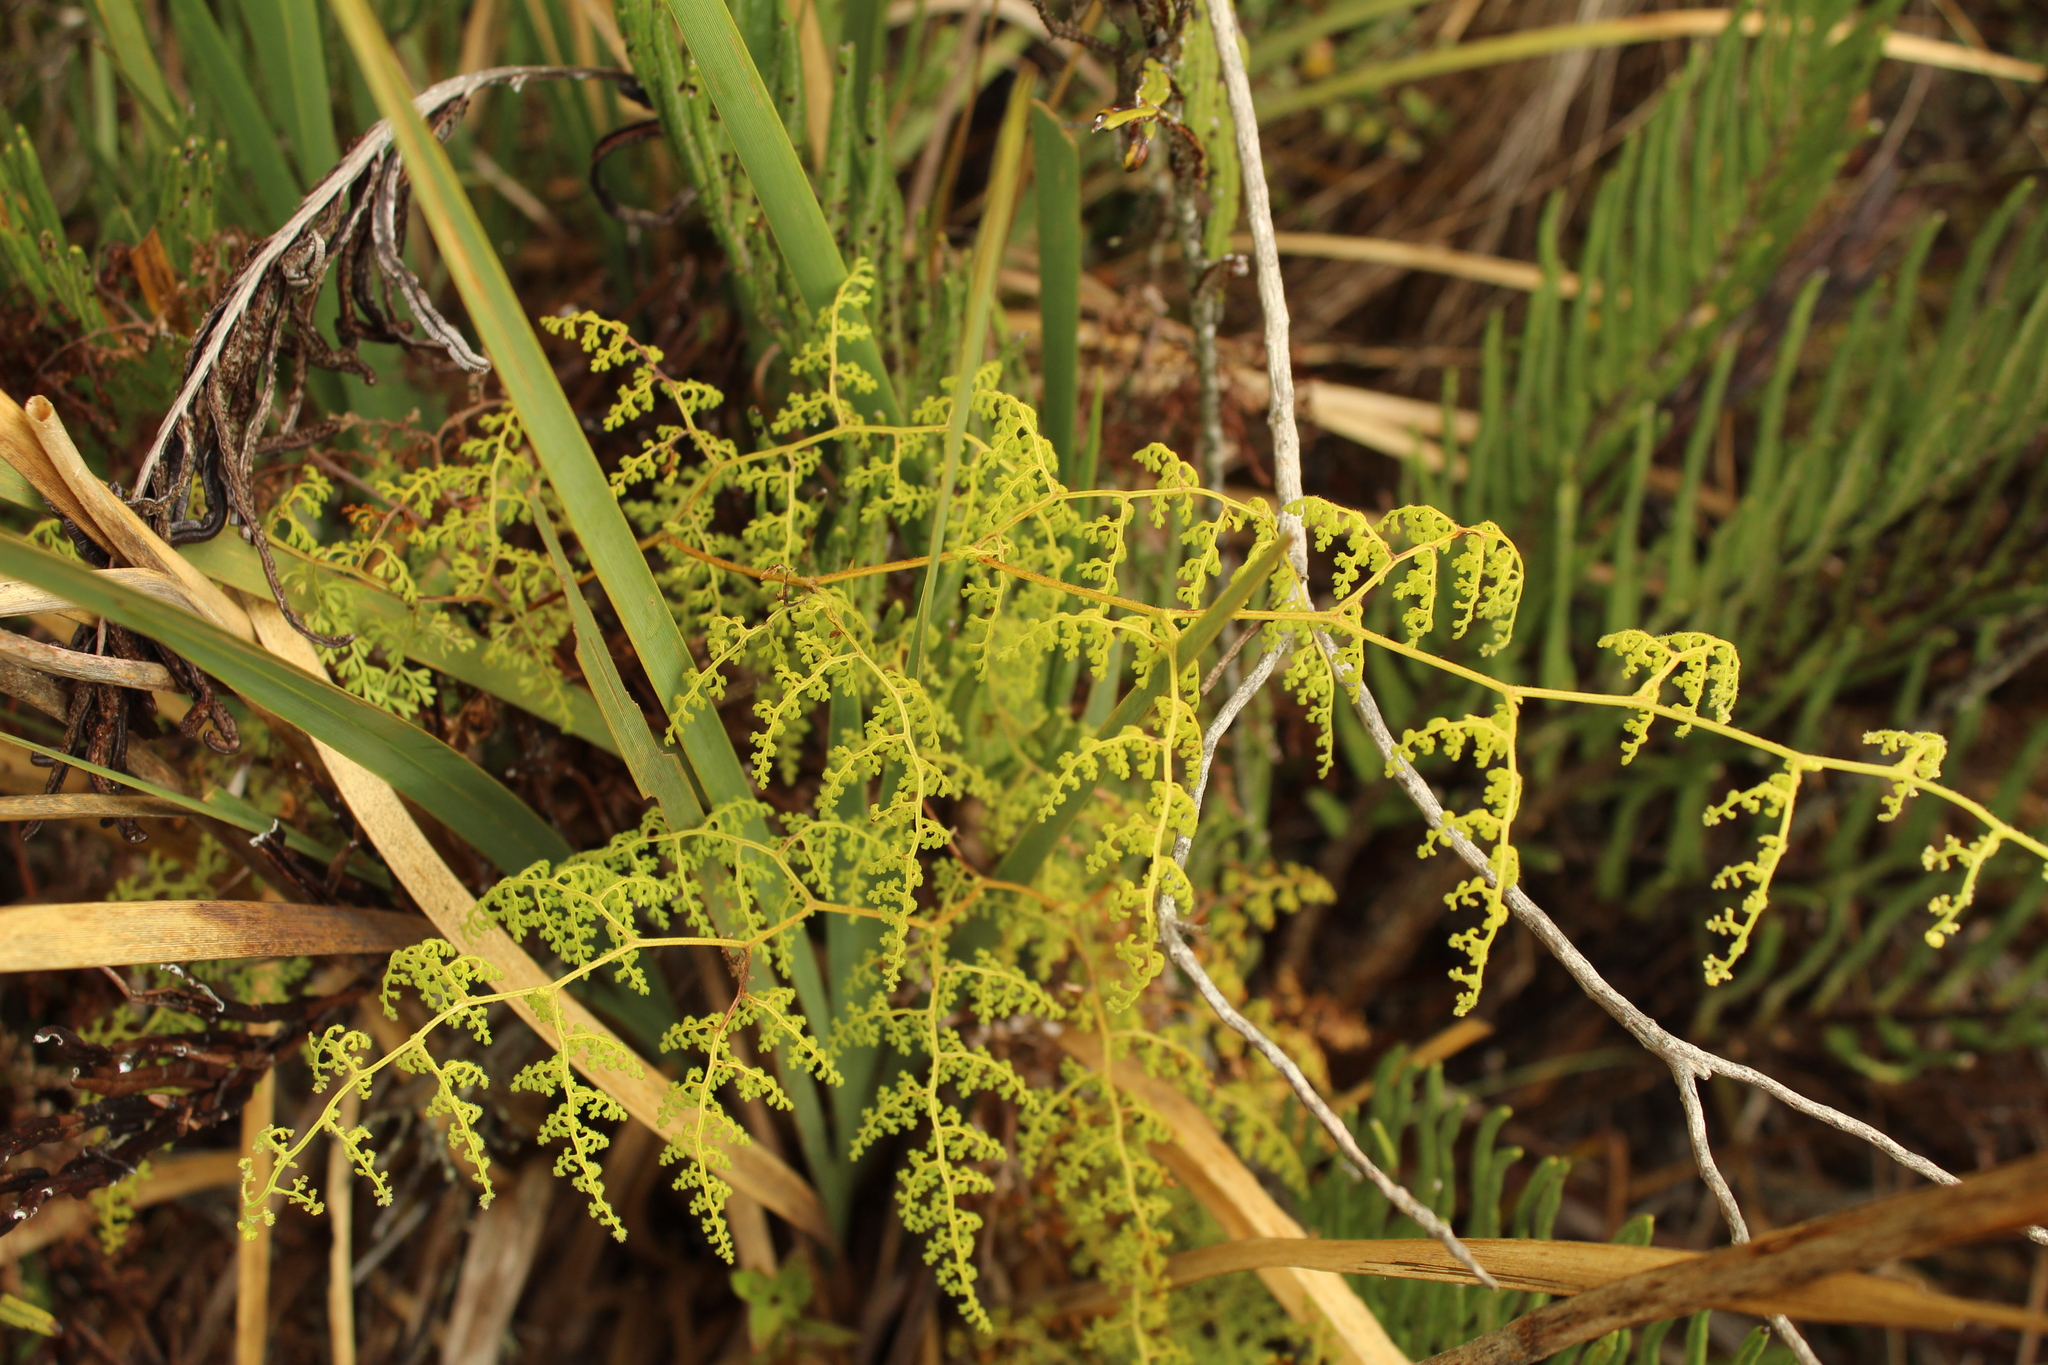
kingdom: Plantae
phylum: Tracheophyta
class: Polypodiopsida
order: Polypodiales
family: Pteridaceae
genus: Jamesonia
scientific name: Jamesonia flexuosa
